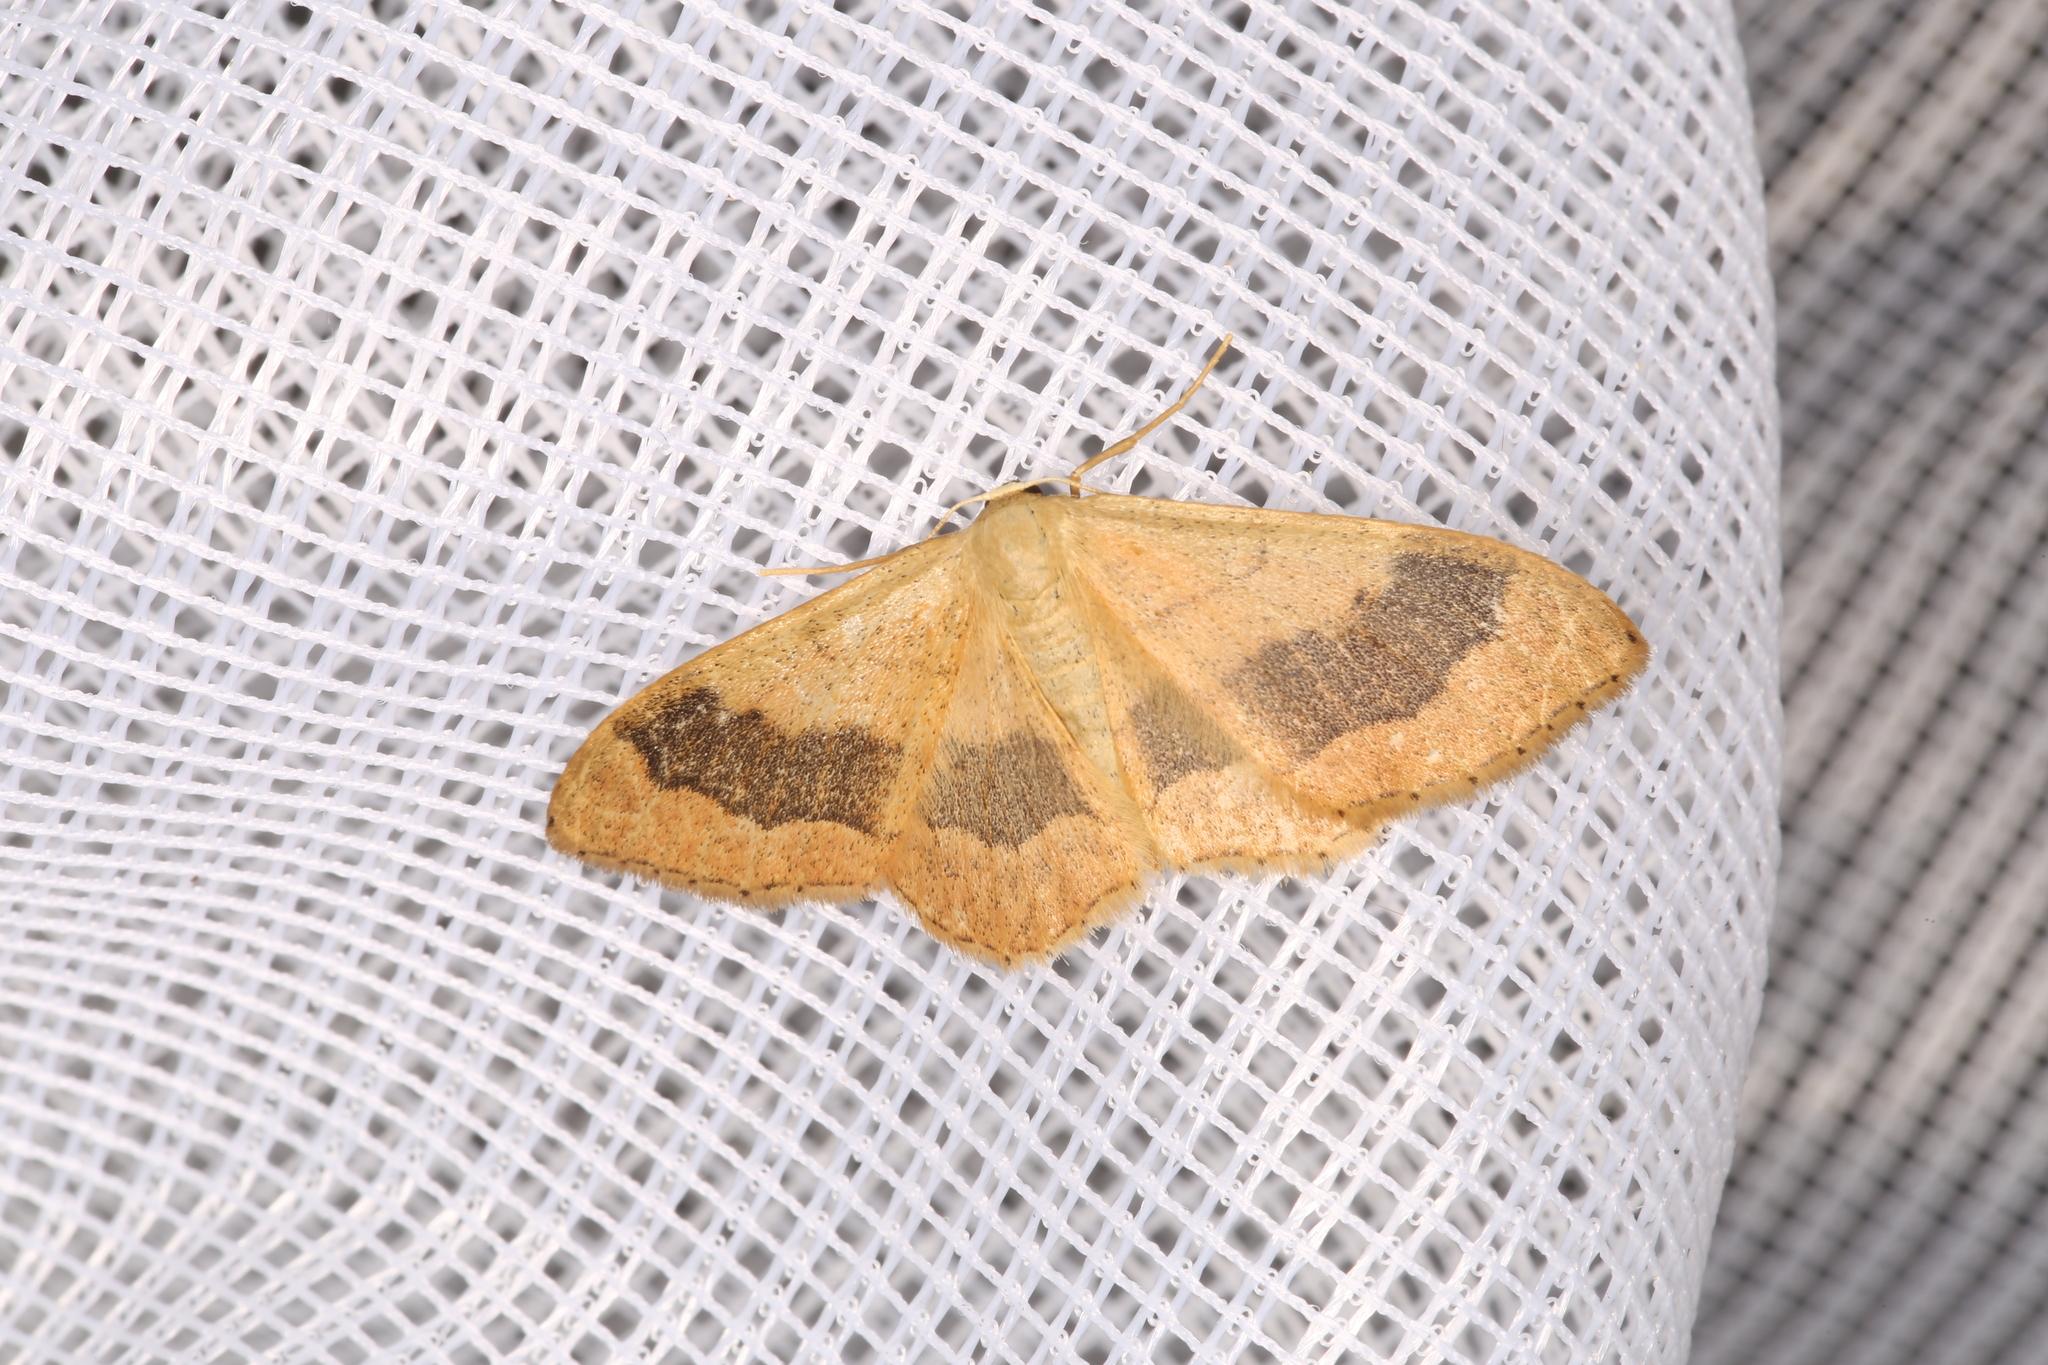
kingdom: Animalia
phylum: Arthropoda
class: Insecta
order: Lepidoptera
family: Geometridae
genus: Idaea
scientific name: Idaea aversata
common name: Riband wave
